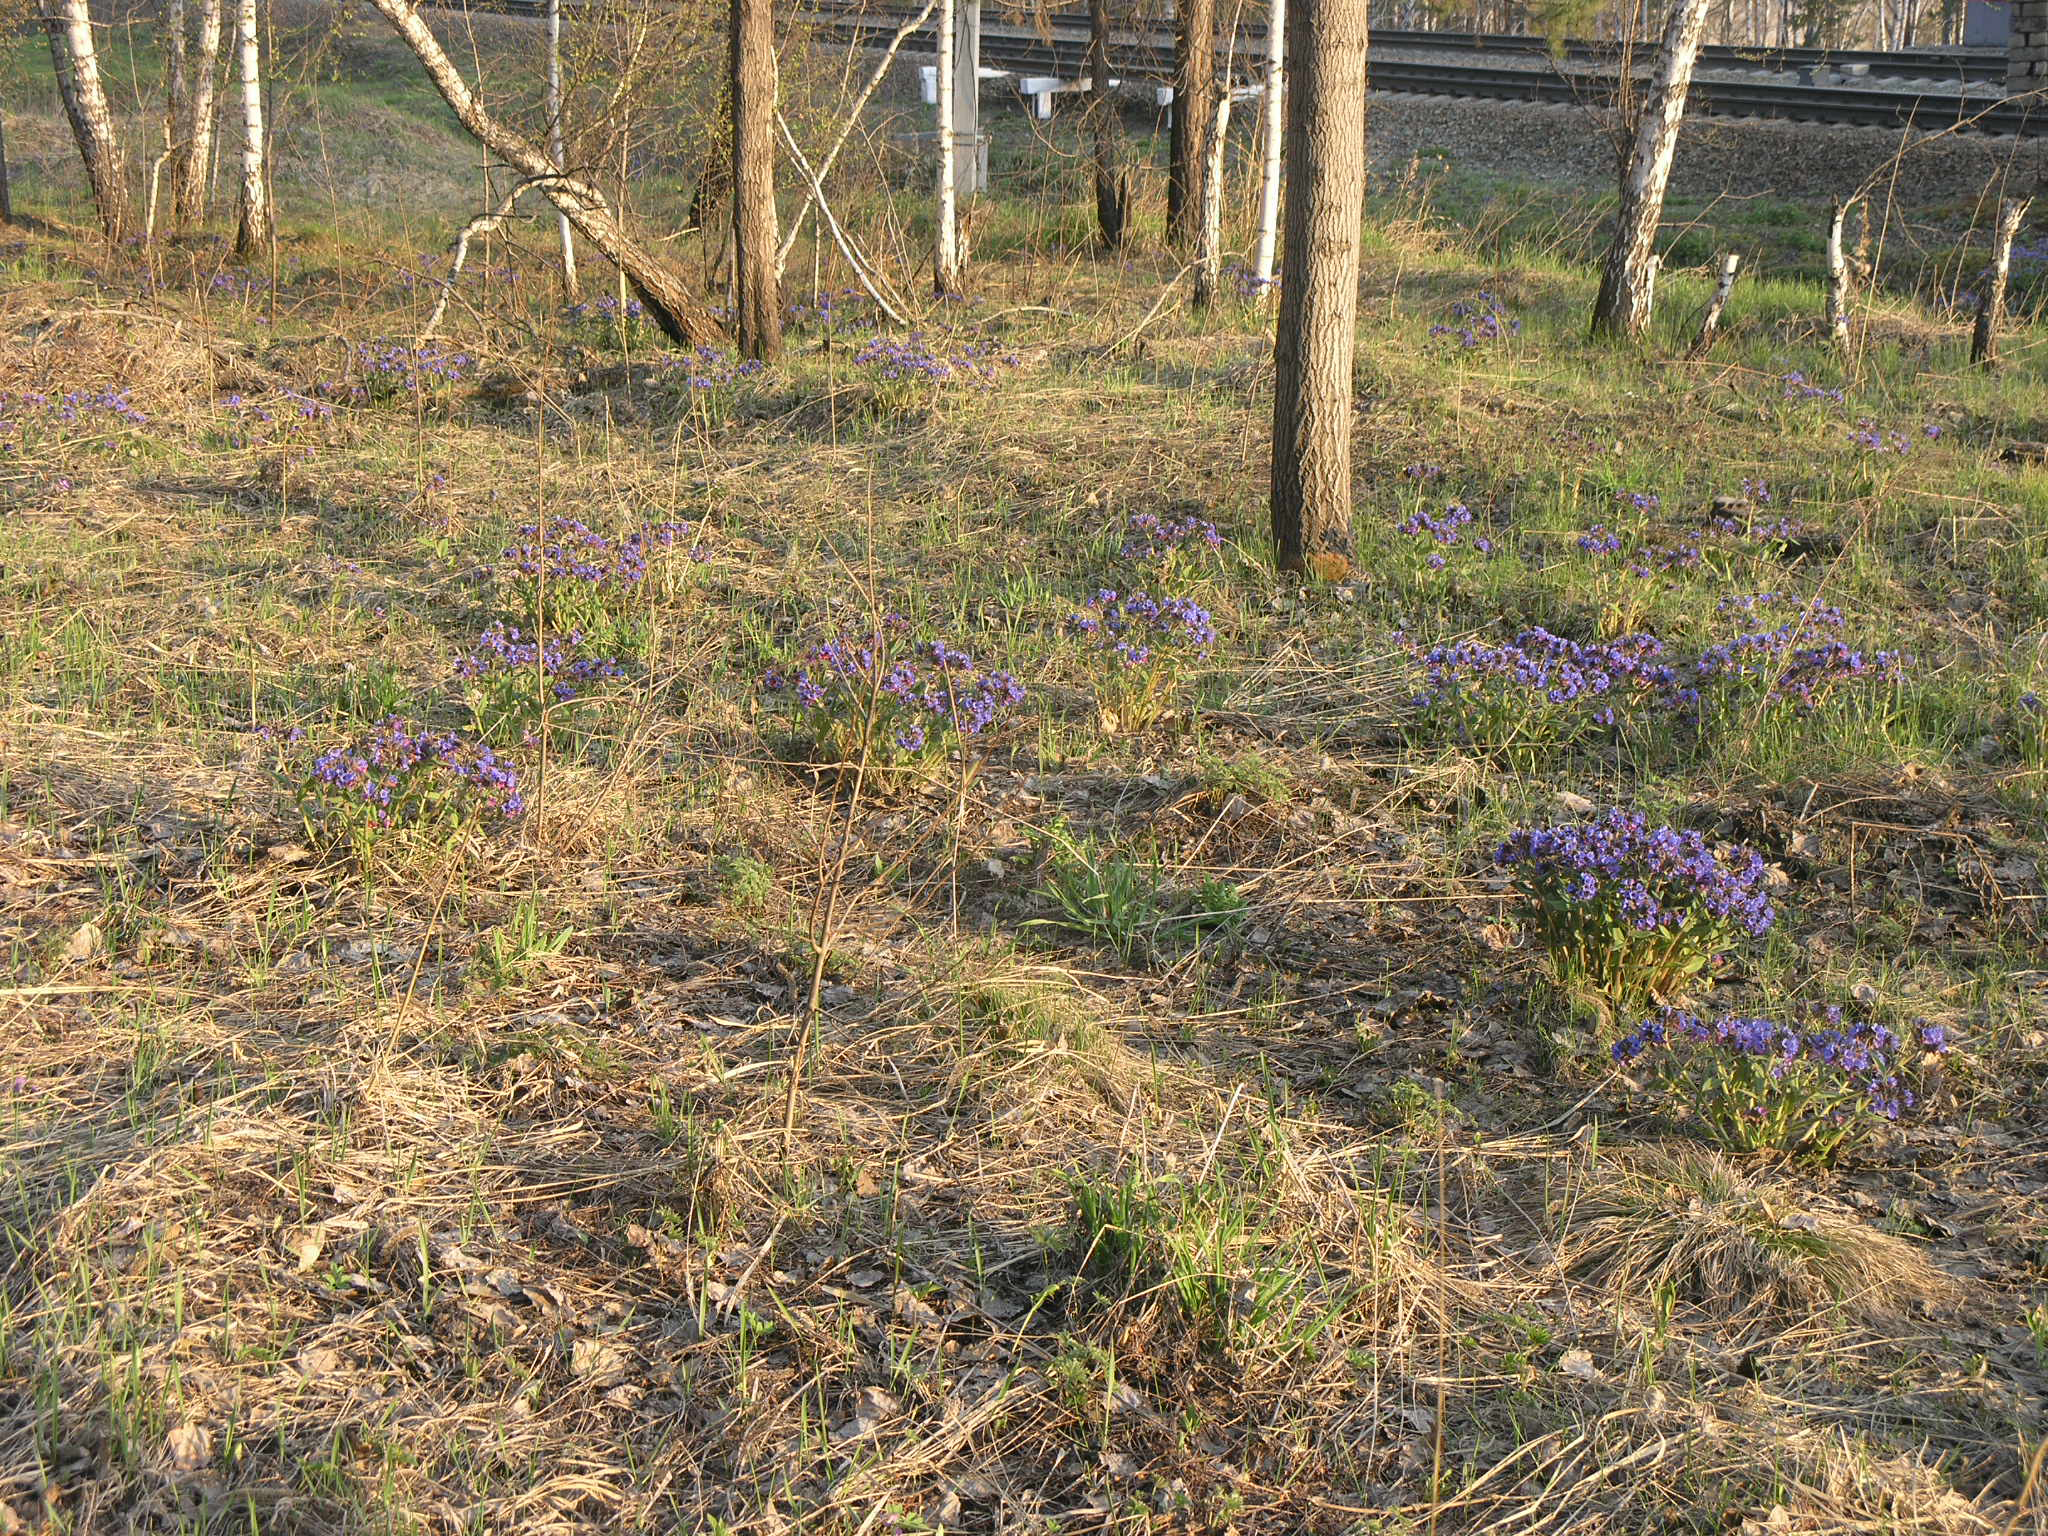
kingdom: Plantae
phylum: Tracheophyta
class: Magnoliopsida
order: Malpighiales
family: Salicaceae
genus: Populus
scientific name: Populus tremula
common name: European aspen
